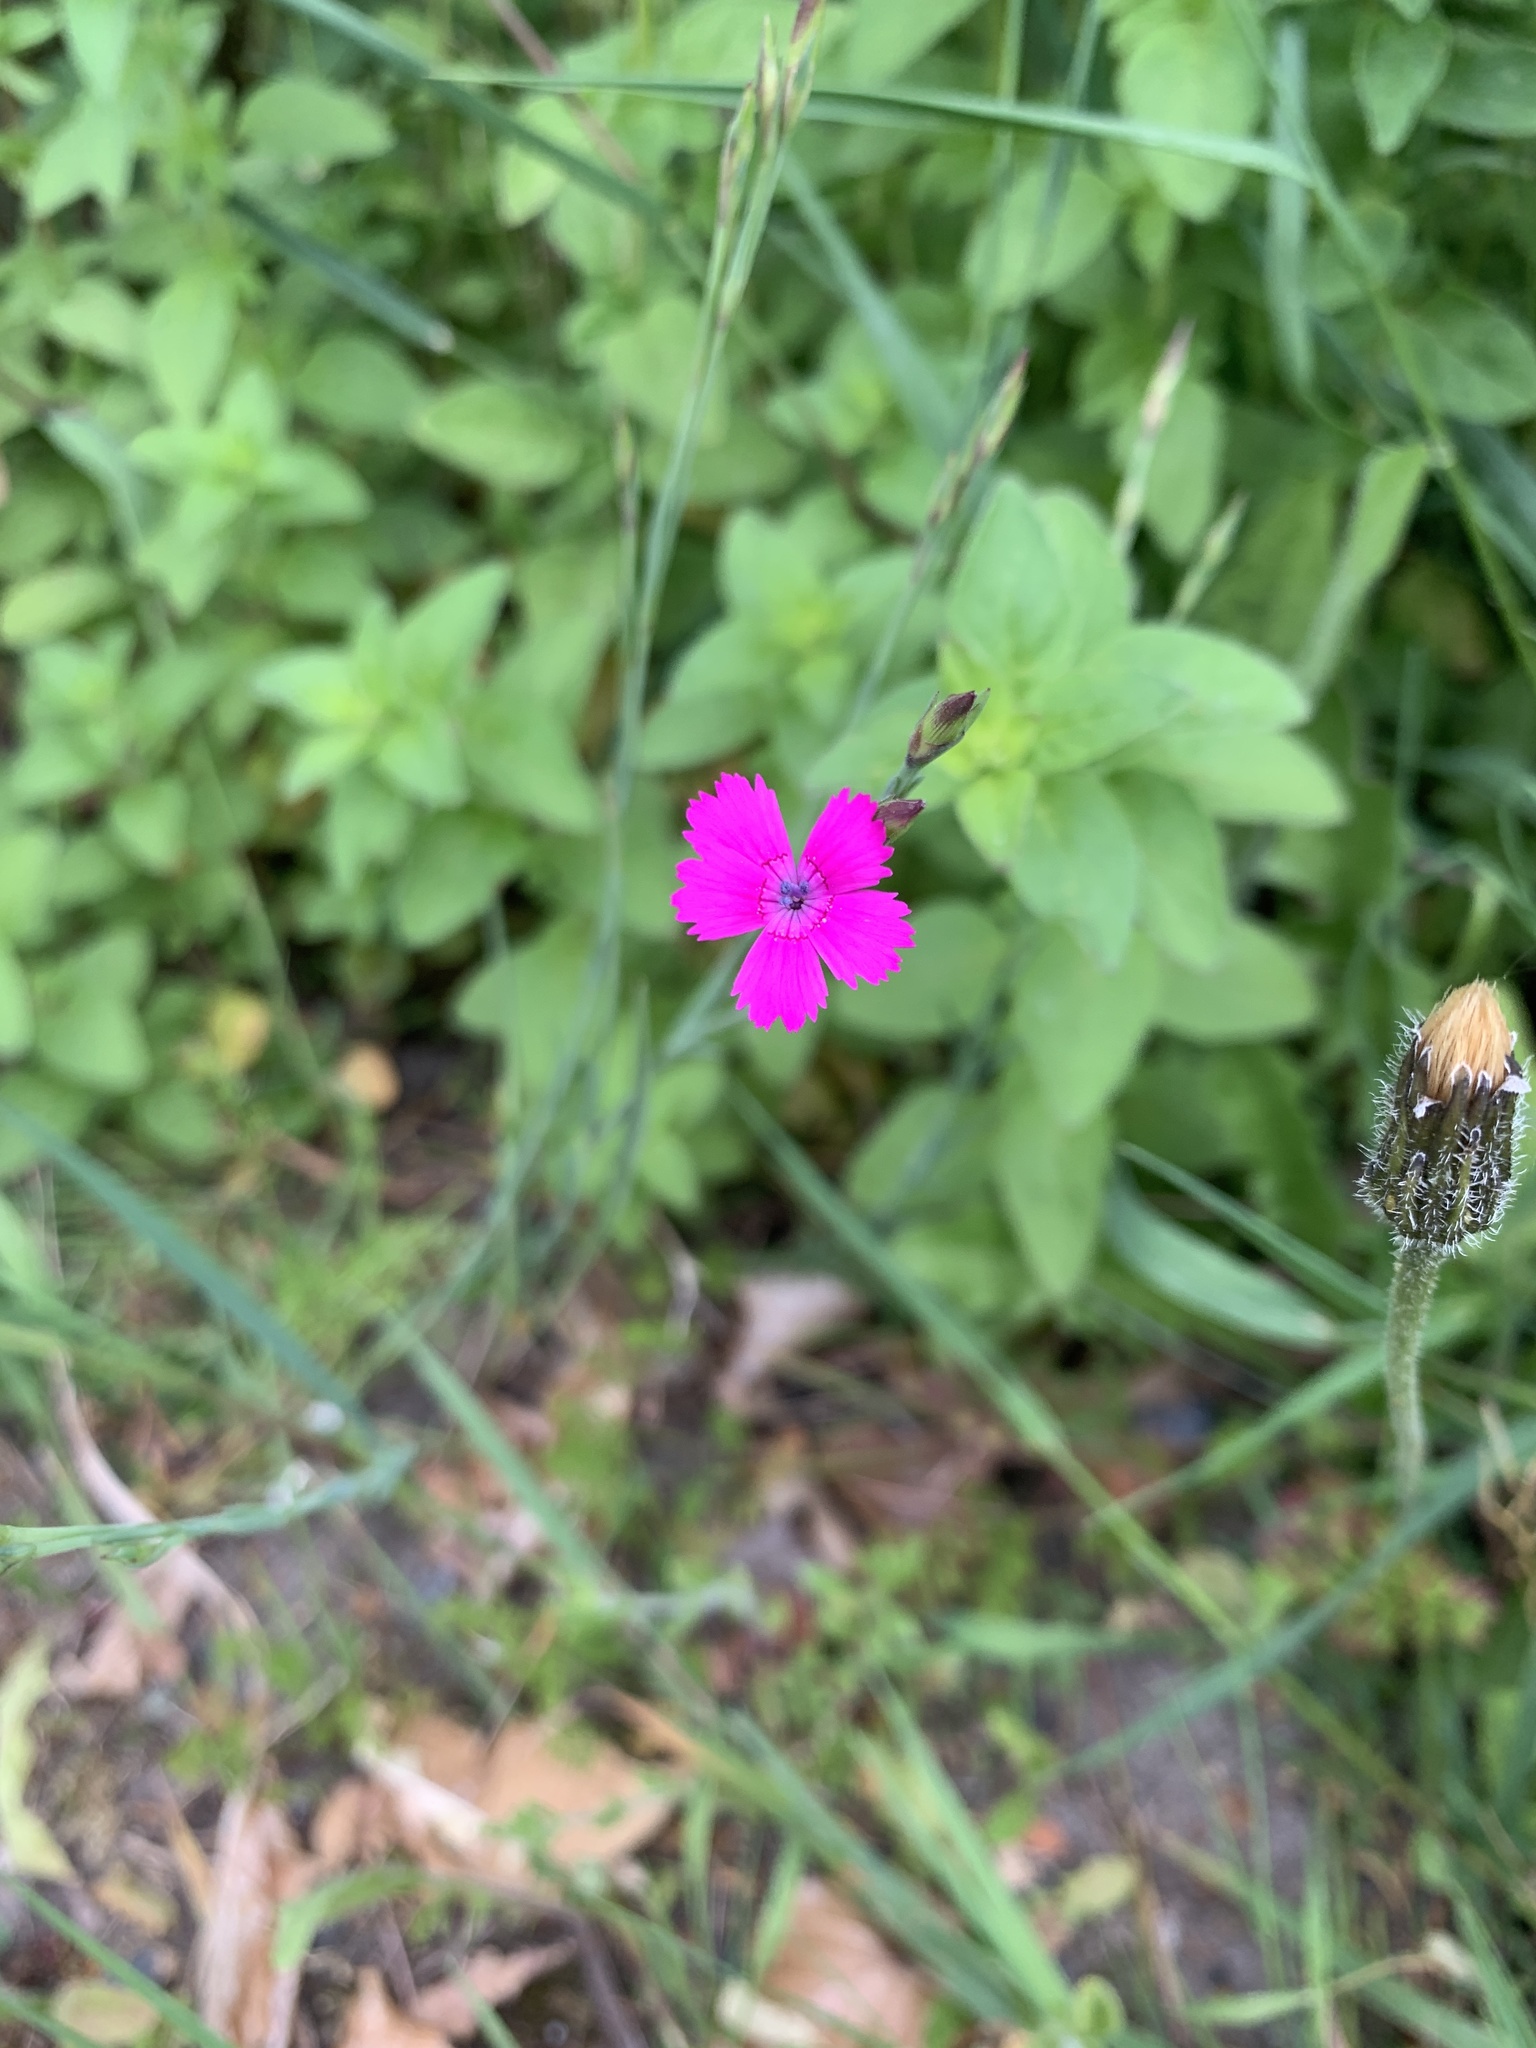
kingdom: Plantae
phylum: Tracheophyta
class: Magnoliopsida
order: Caryophyllales
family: Caryophyllaceae
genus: Dianthus
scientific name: Dianthus deltoides
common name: Maiden pink
